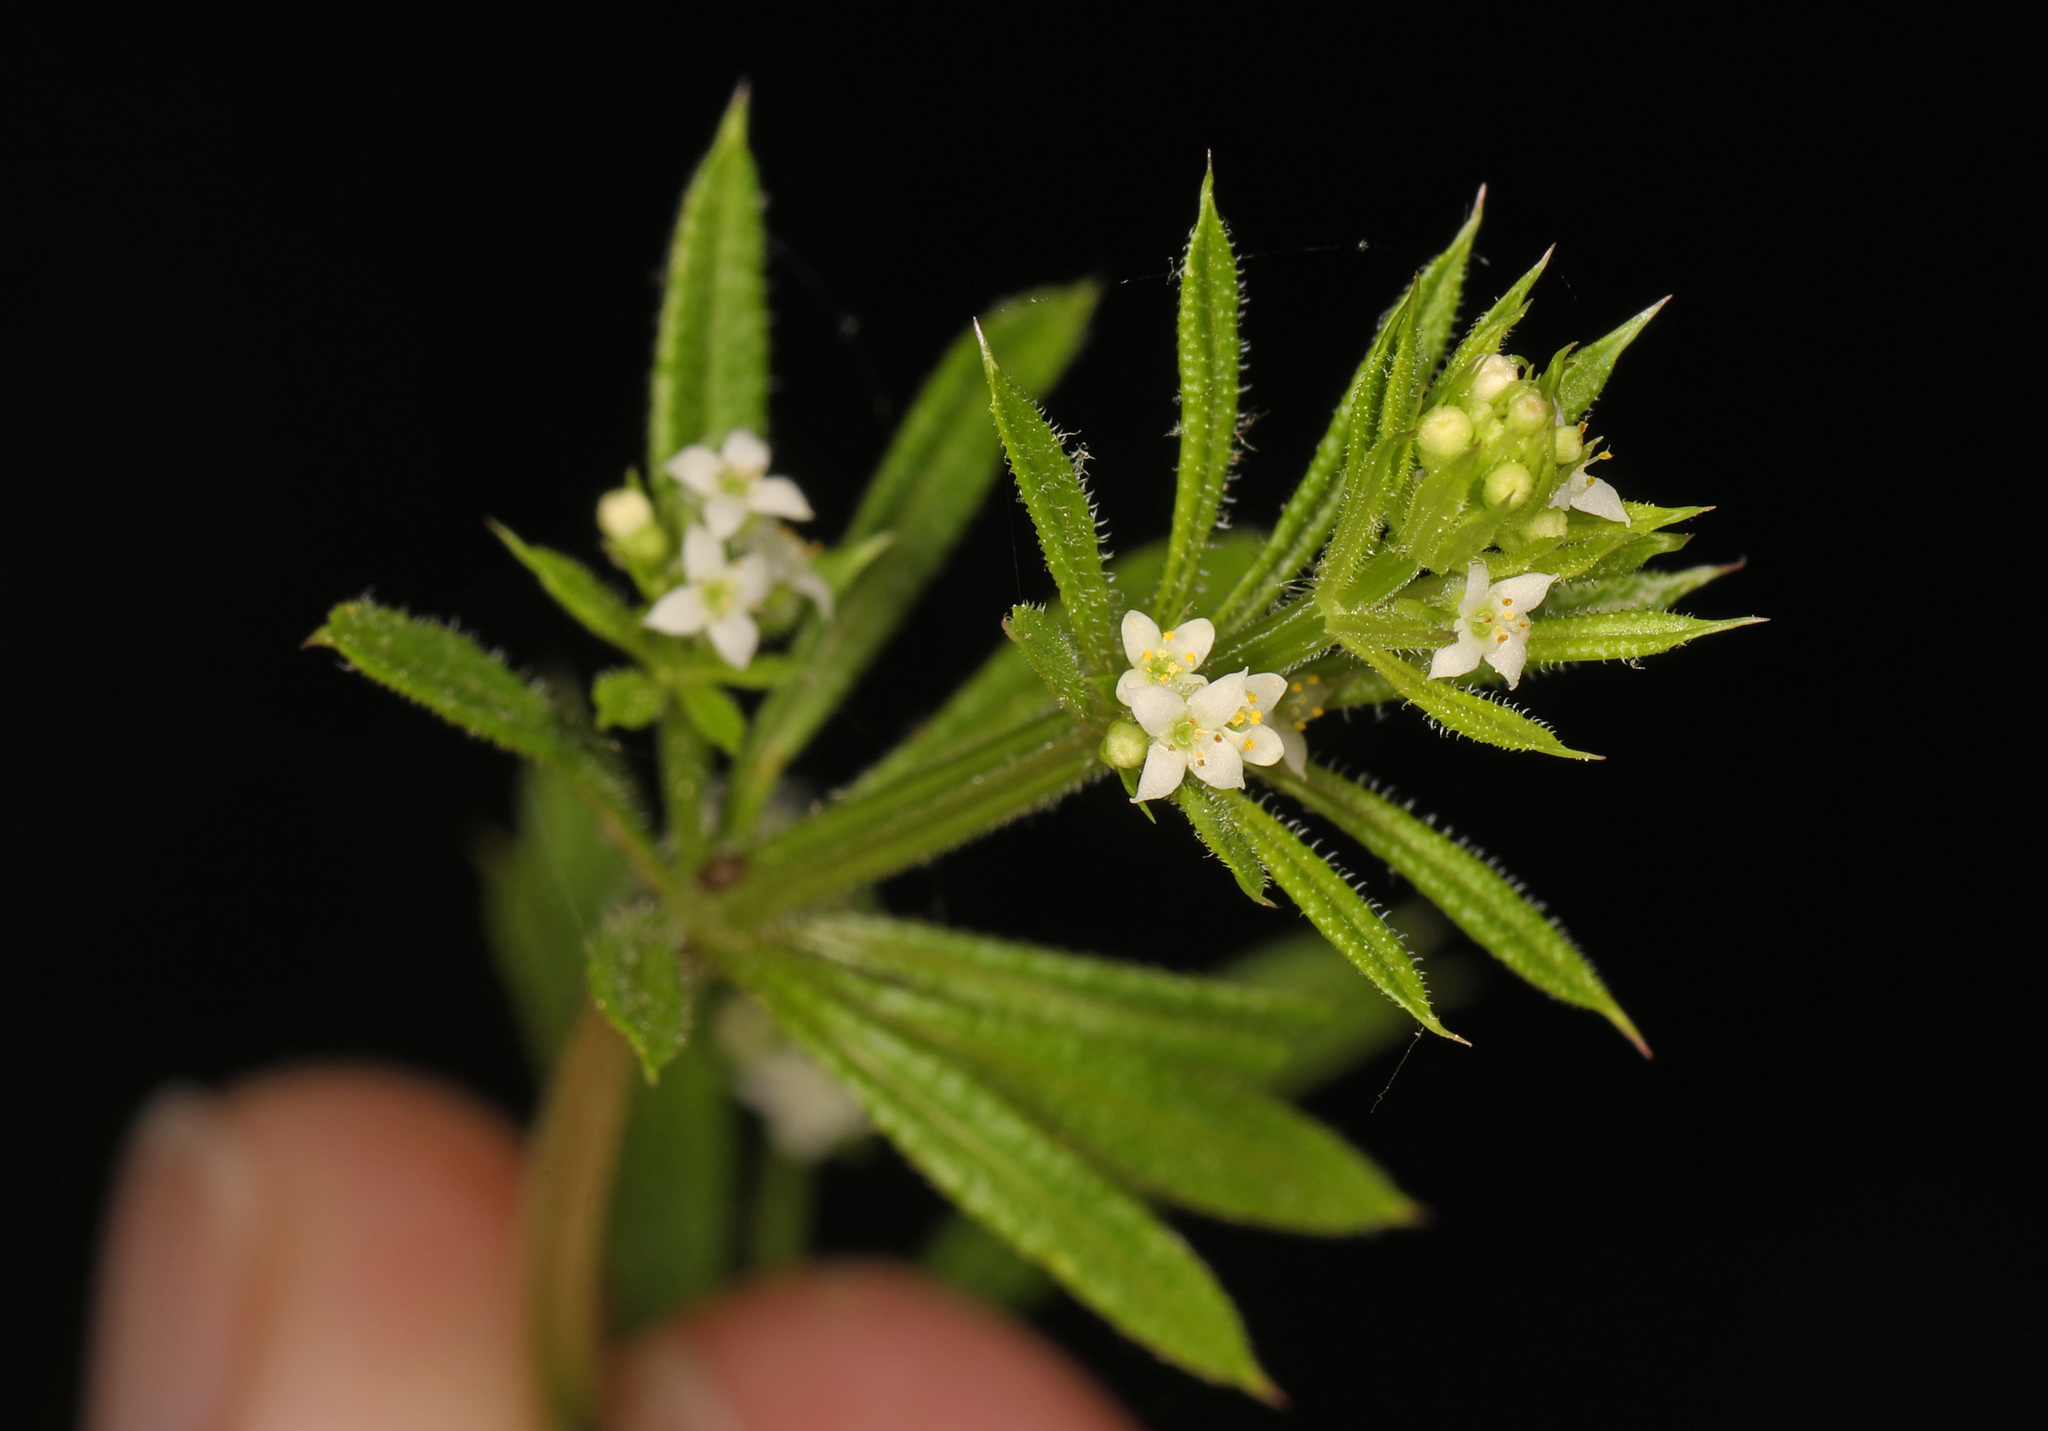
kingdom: Plantae
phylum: Tracheophyta
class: Magnoliopsida
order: Gentianales
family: Rubiaceae
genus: Galium
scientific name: Galium aparine
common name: Cleavers
